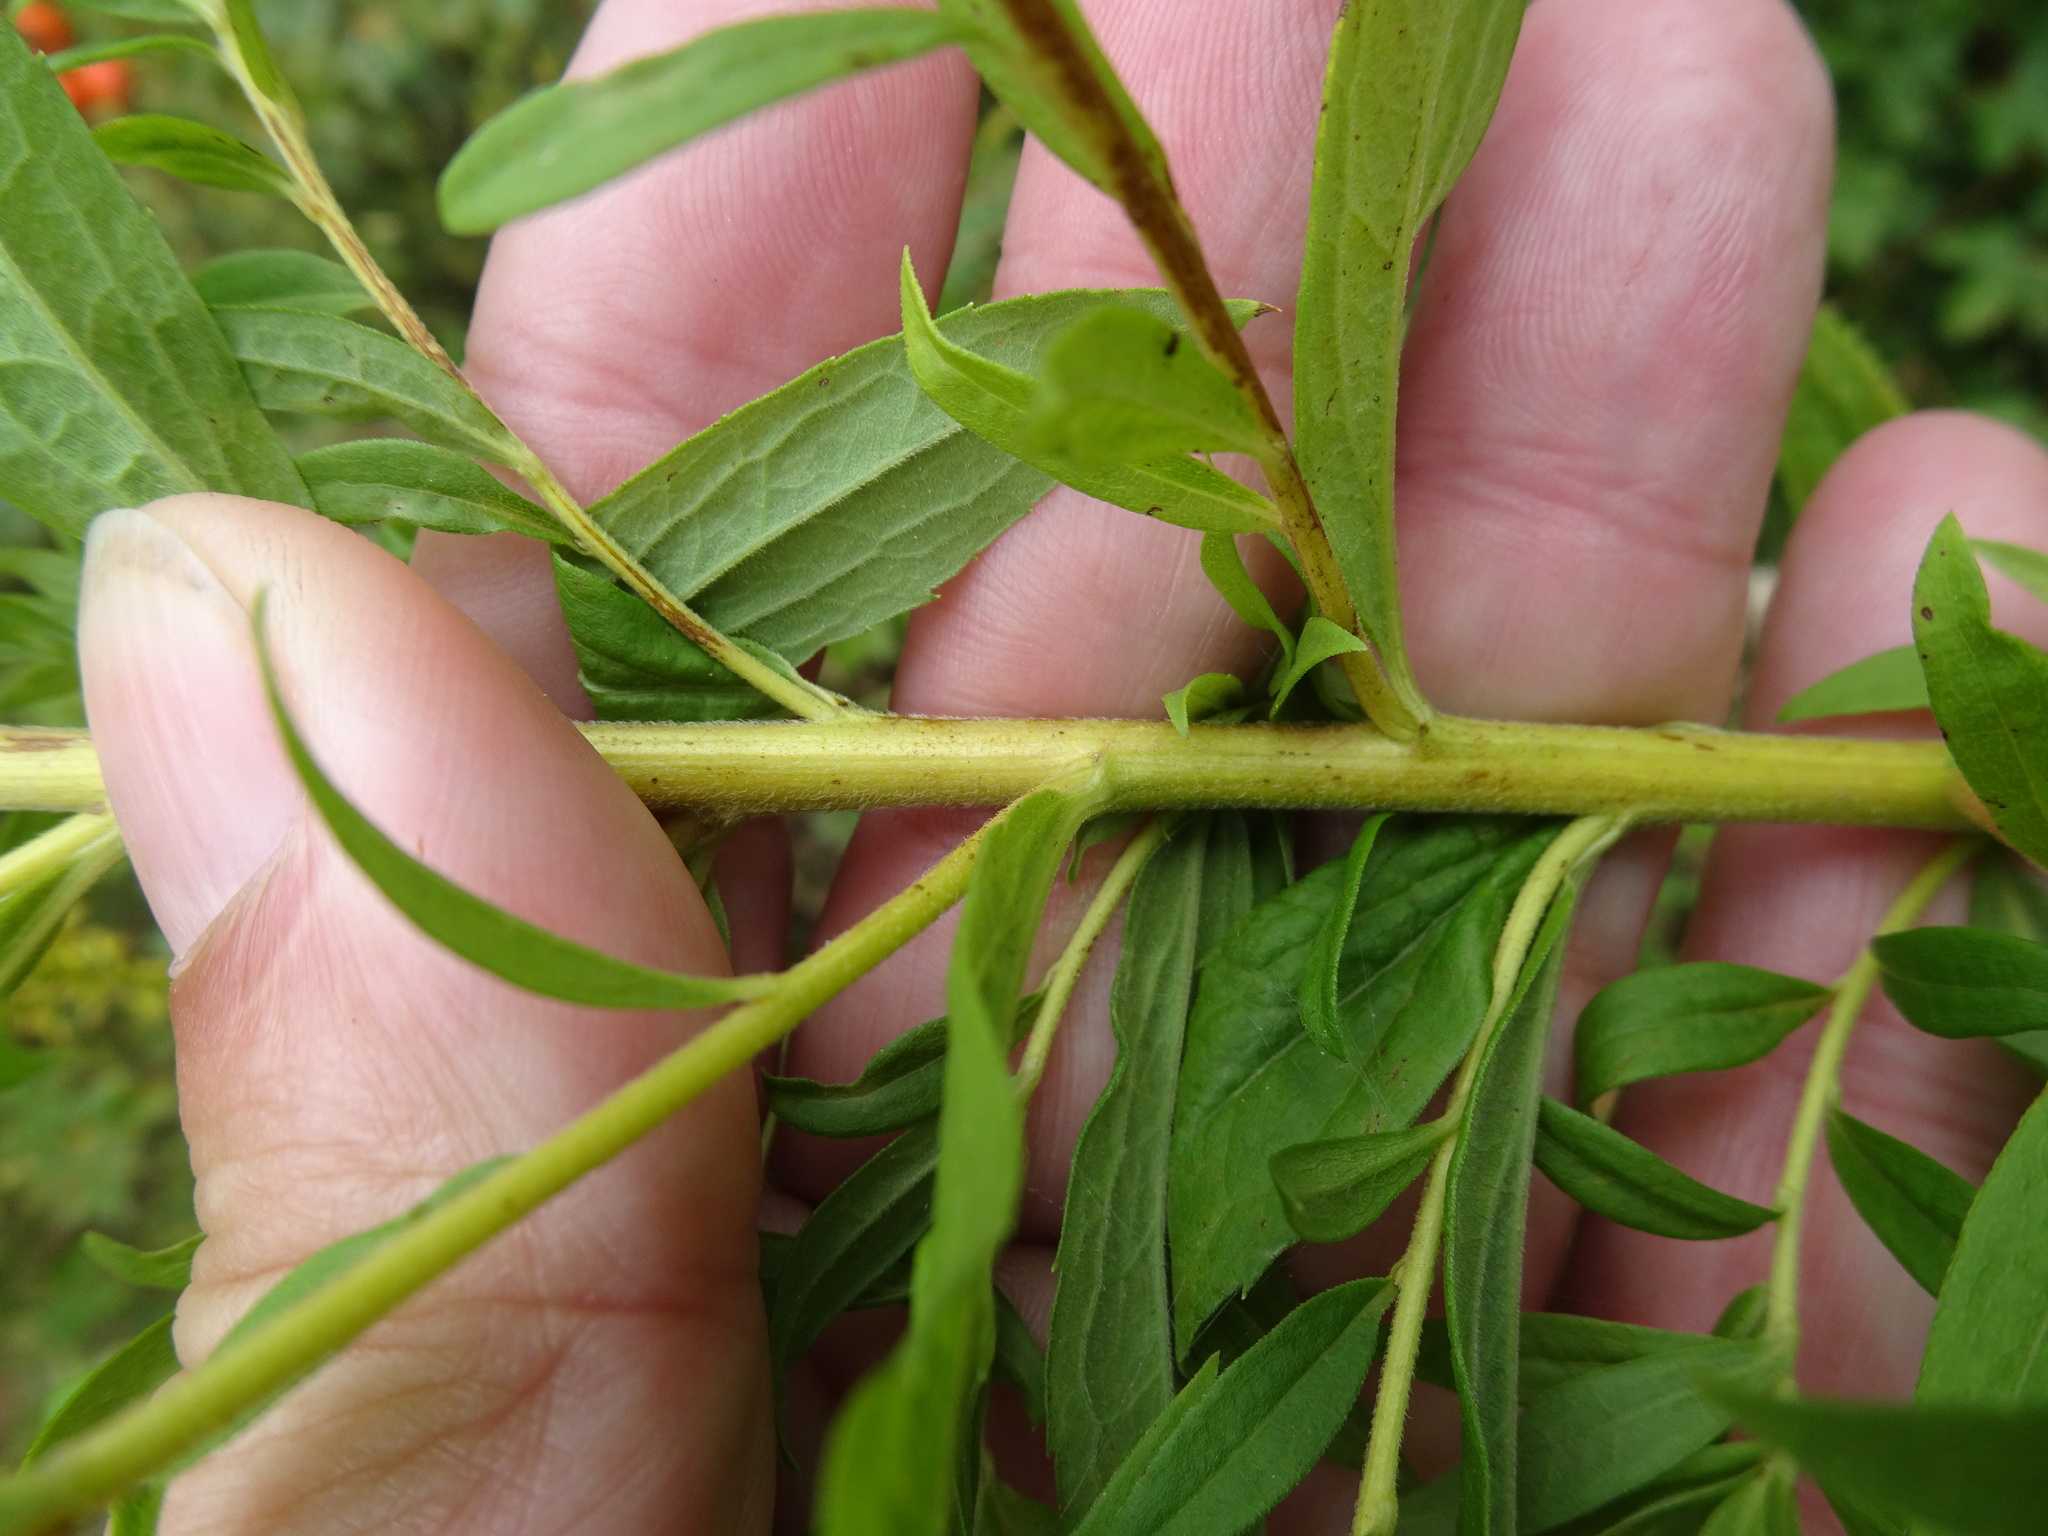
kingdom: Plantae
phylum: Tracheophyta
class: Magnoliopsida
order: Asterales
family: Asteraceae
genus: Solidago
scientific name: Solidago canadensis
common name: Canada goldenrod
